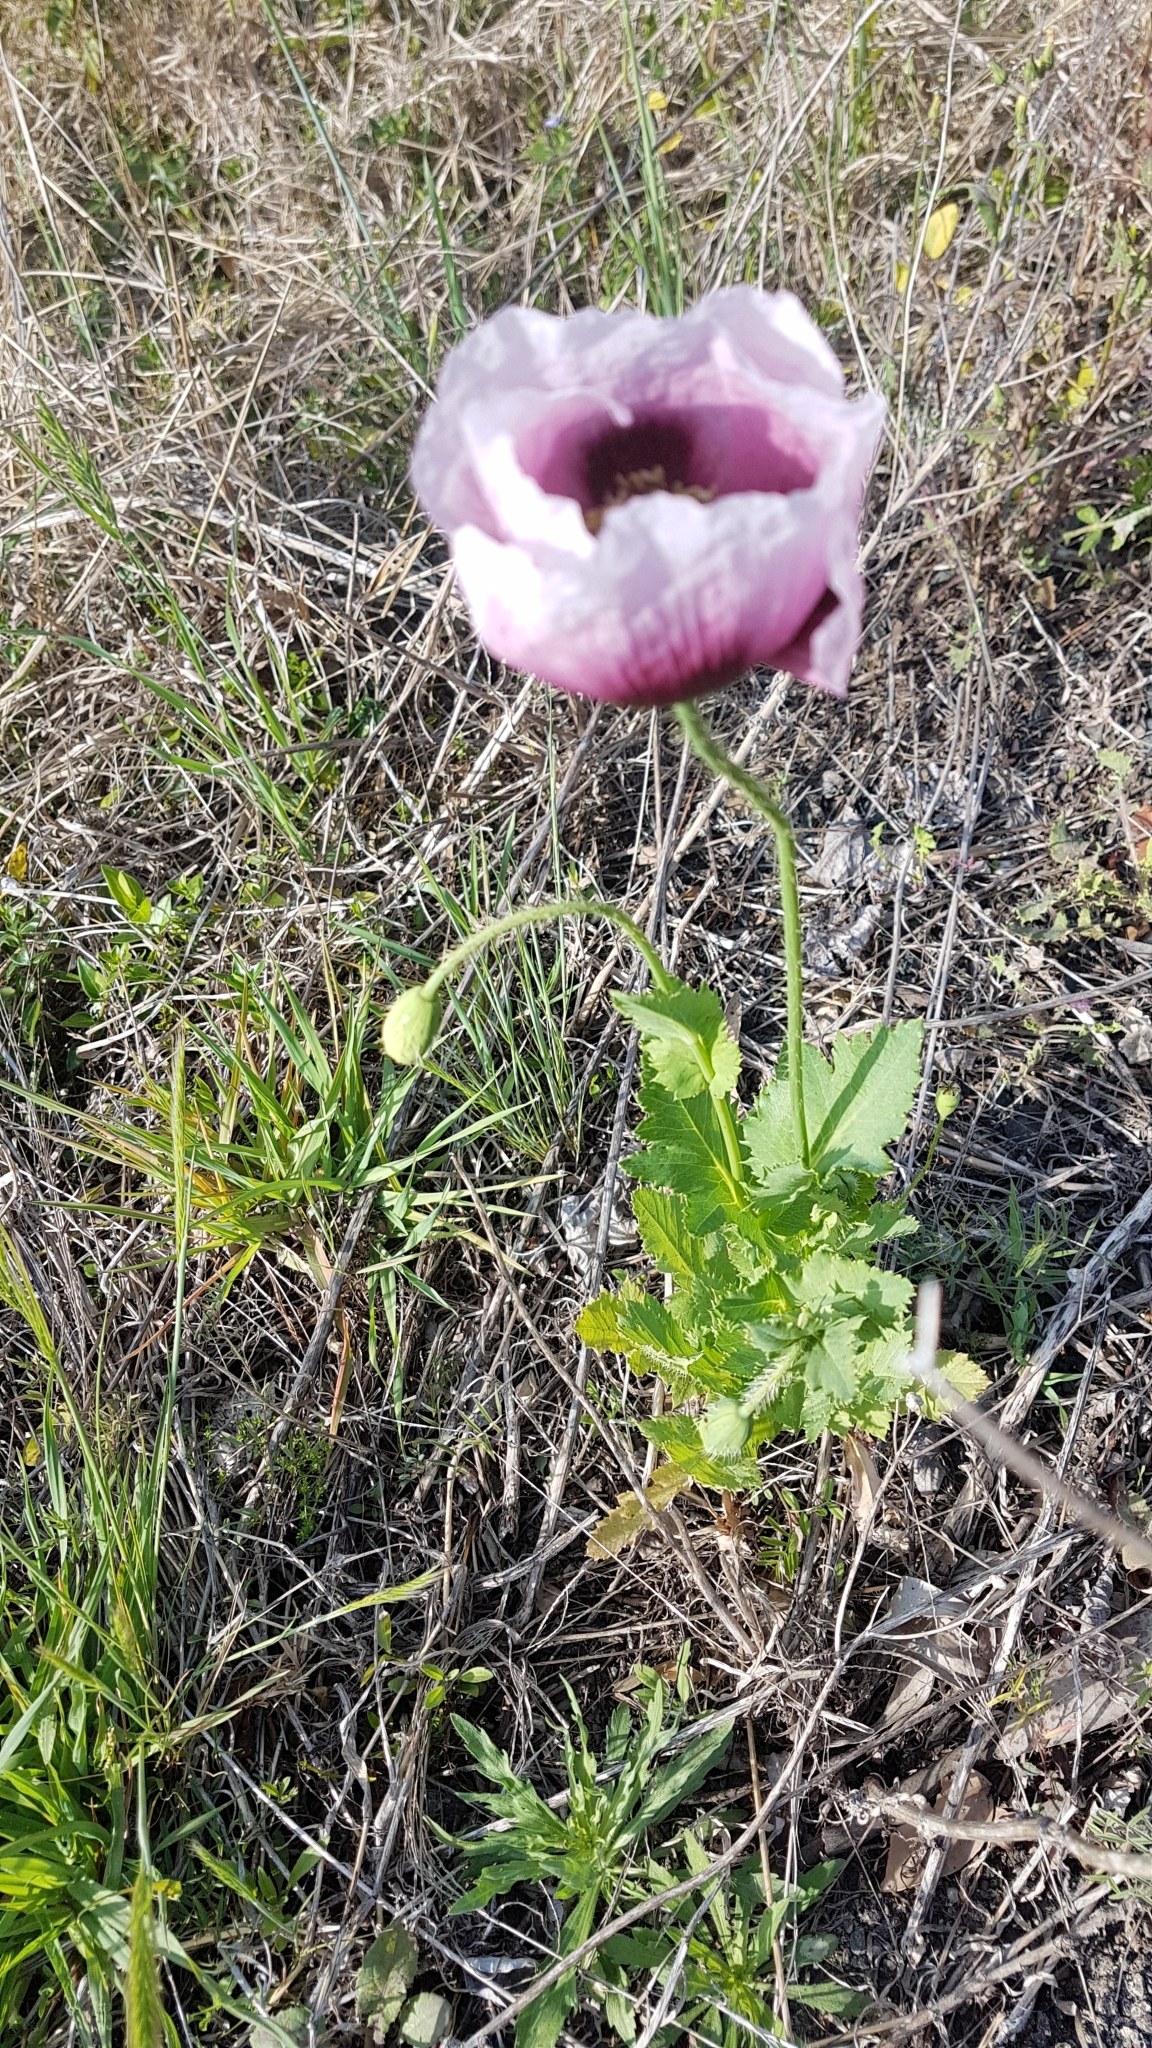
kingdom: Plantae
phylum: Tracheophyta
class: Magnoliopsida
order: Ranunculales
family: Papaveraceae
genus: Papaver
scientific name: Papaver somniferum
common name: Opium poppy
